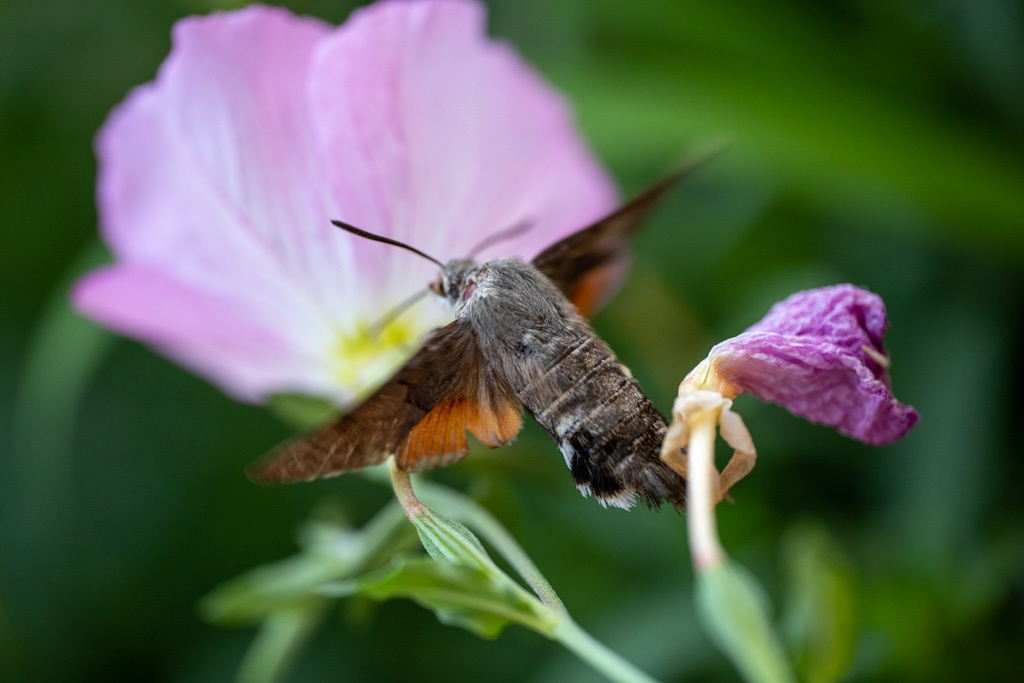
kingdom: Animalia
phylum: Arthropoda
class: Insecta
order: Lepidoptera
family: Sphingidae
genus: Macroglossum
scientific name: Macroglossum stellatarum
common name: Humming-bird hawk-moth
